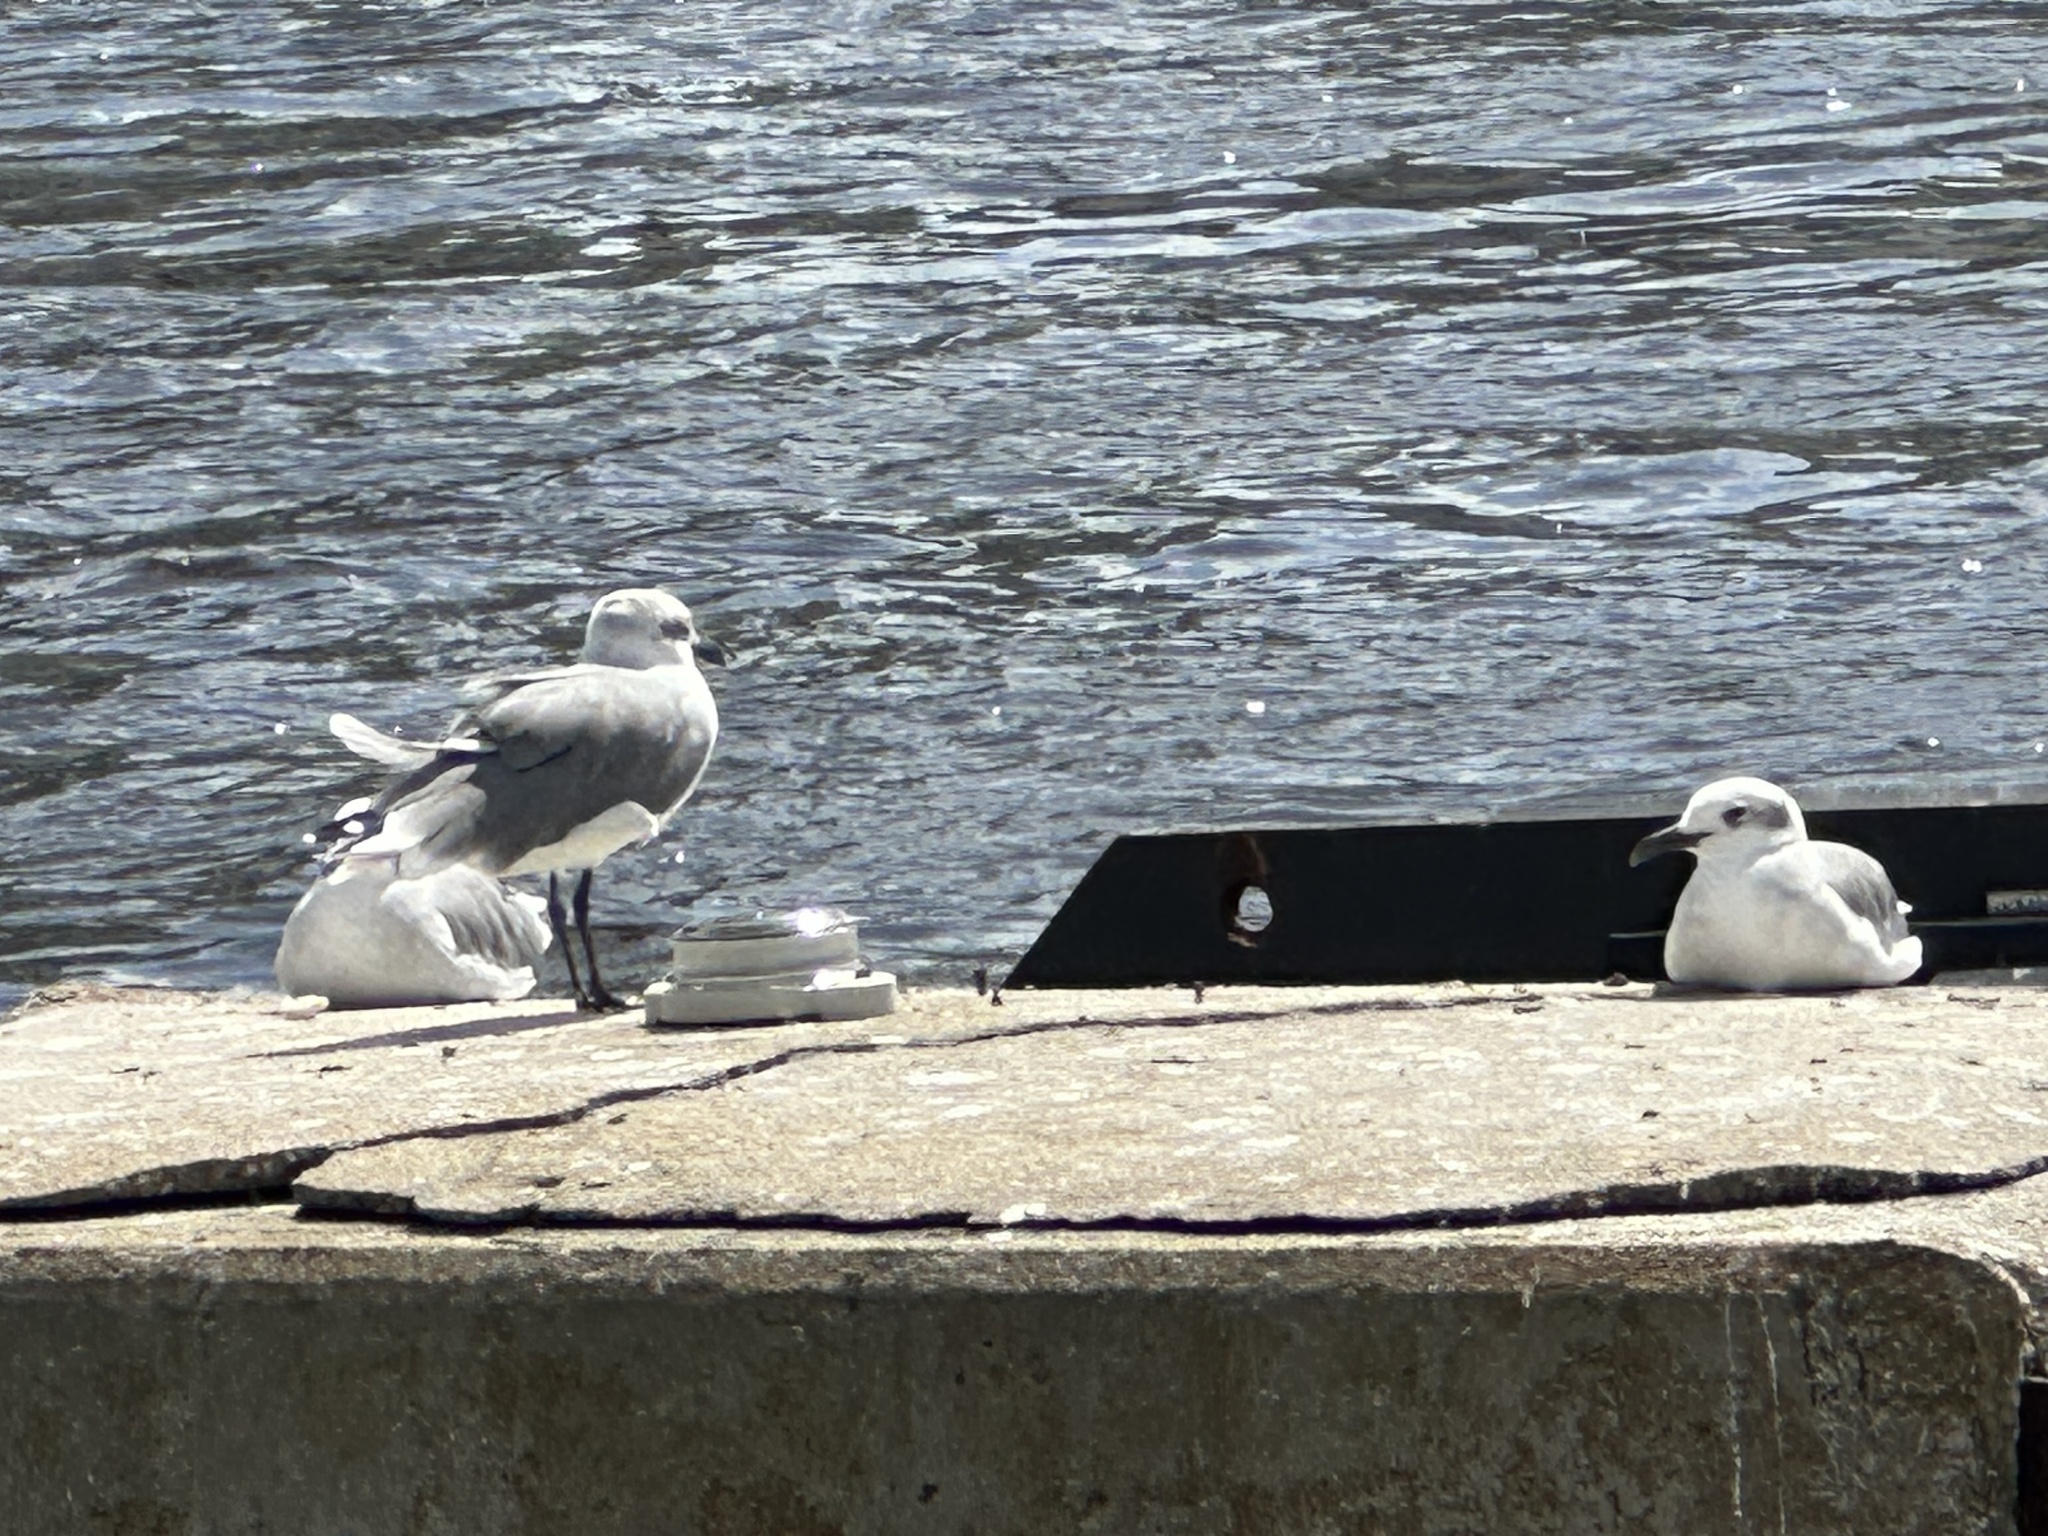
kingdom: Animalia
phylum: Chordata
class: Aves
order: Charadriiformes
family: Laridae
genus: Leucophaeus
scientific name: Leucophaeus atricilla
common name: Laughing gull
